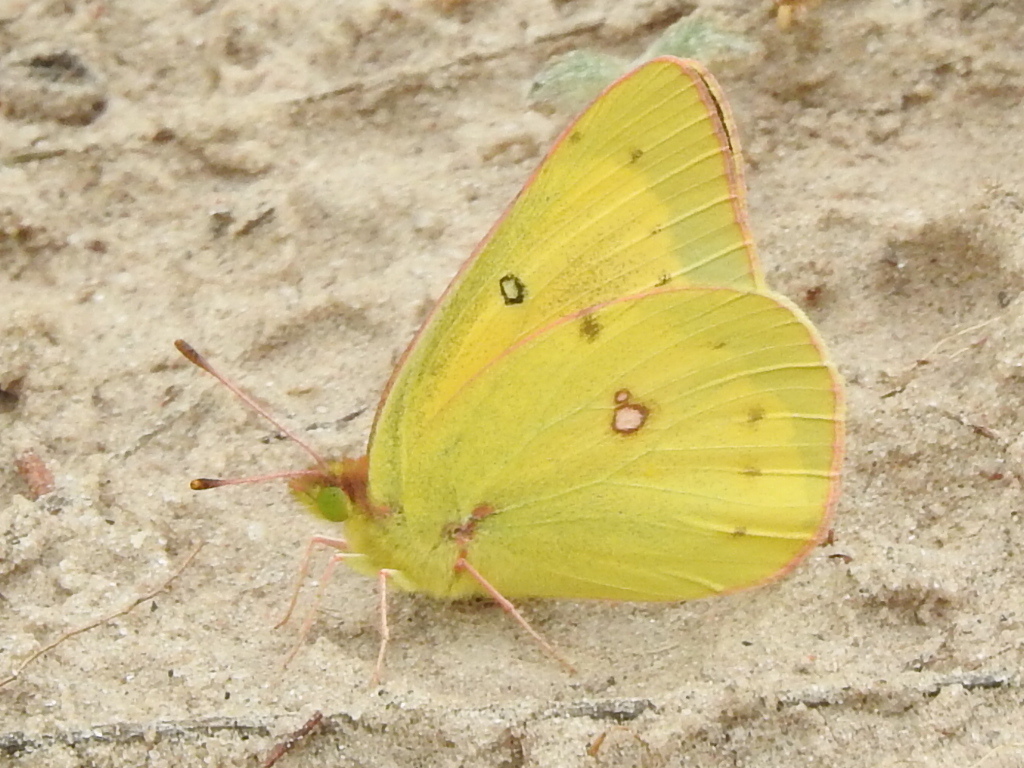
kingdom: Animalia
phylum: Arthropoda
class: Insecta
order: Lepidoptera
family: Pieridae
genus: Colias
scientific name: Colias eurytheme
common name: Alfalfa butterfly
